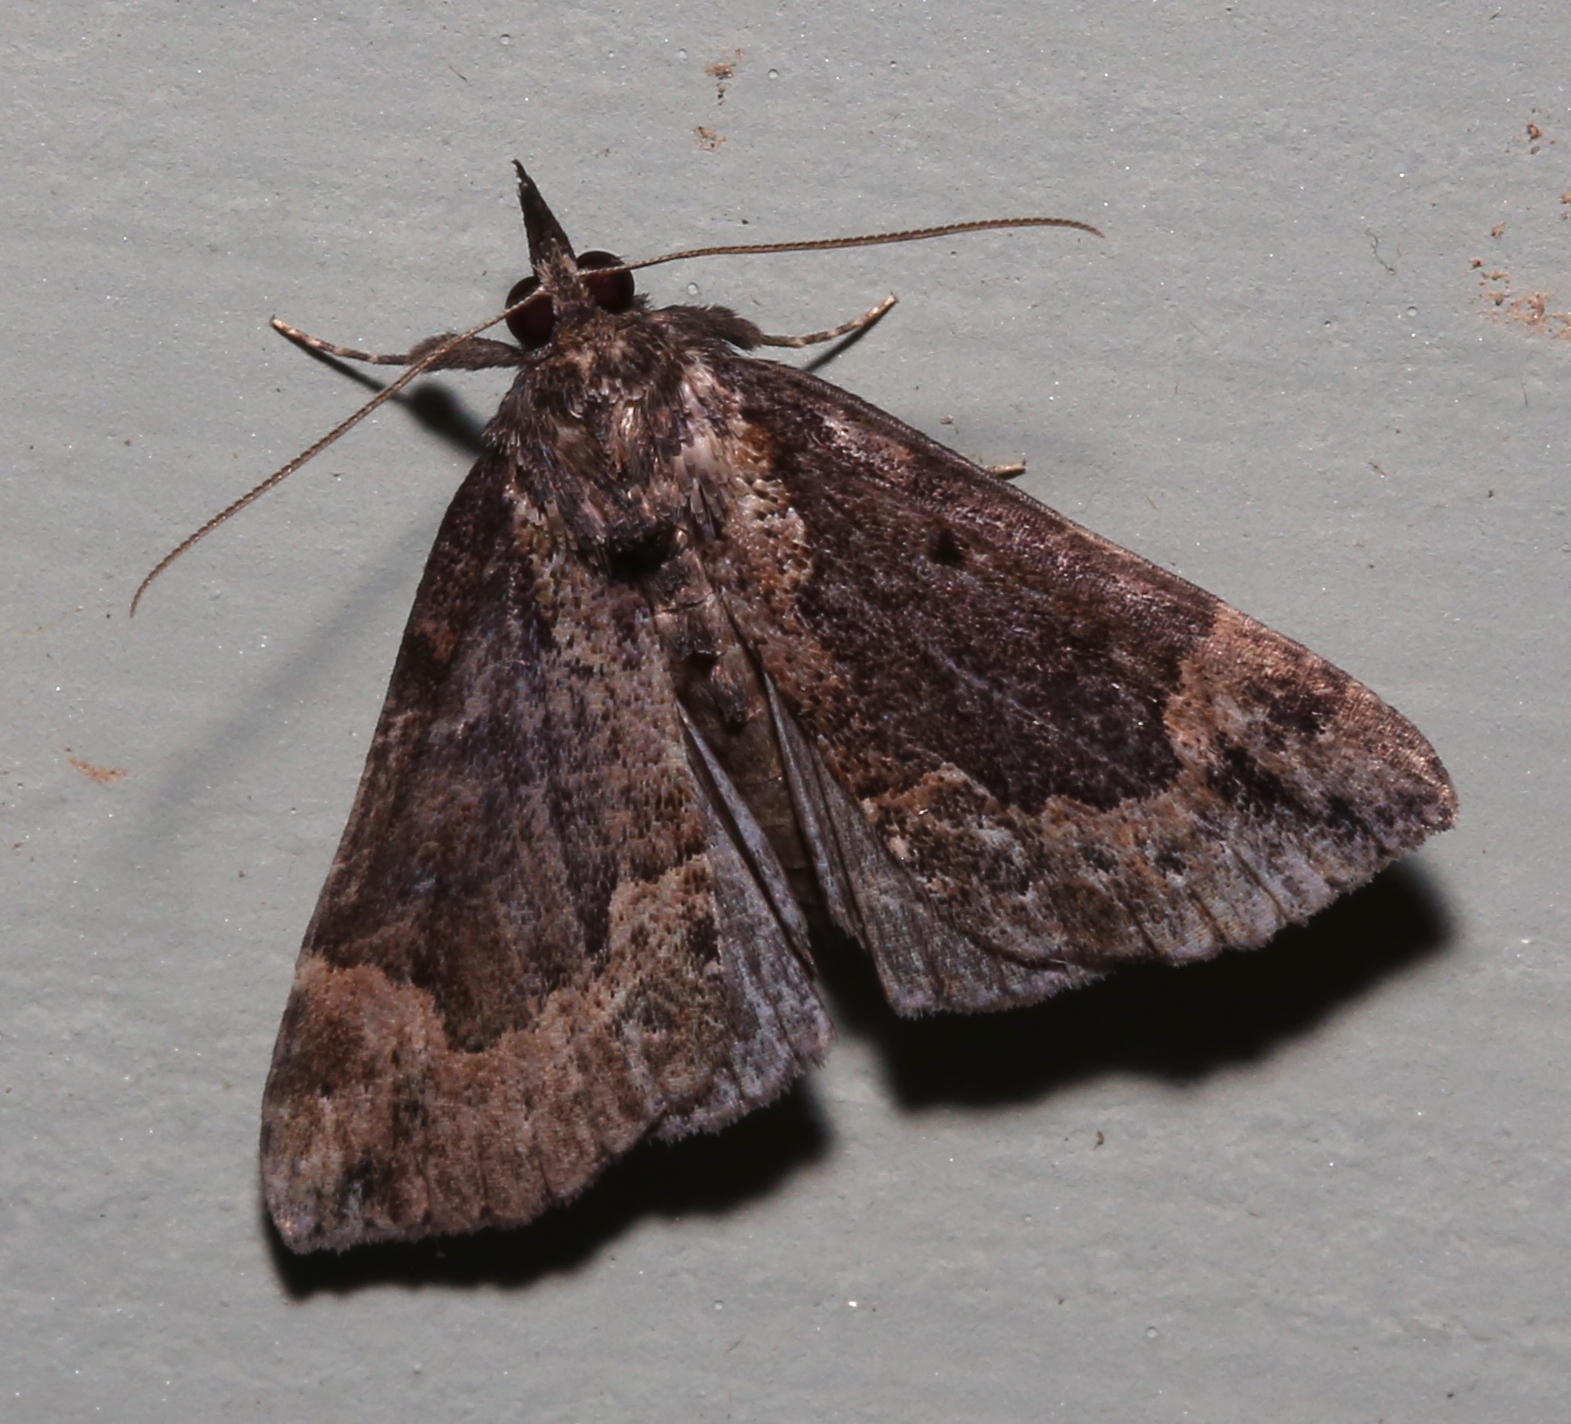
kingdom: Animalia
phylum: Arthropoda
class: Insecta
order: Lepidoptera
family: Erebidae
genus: Hypena
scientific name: Hypena baltimoralis
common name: Baltimore snout
